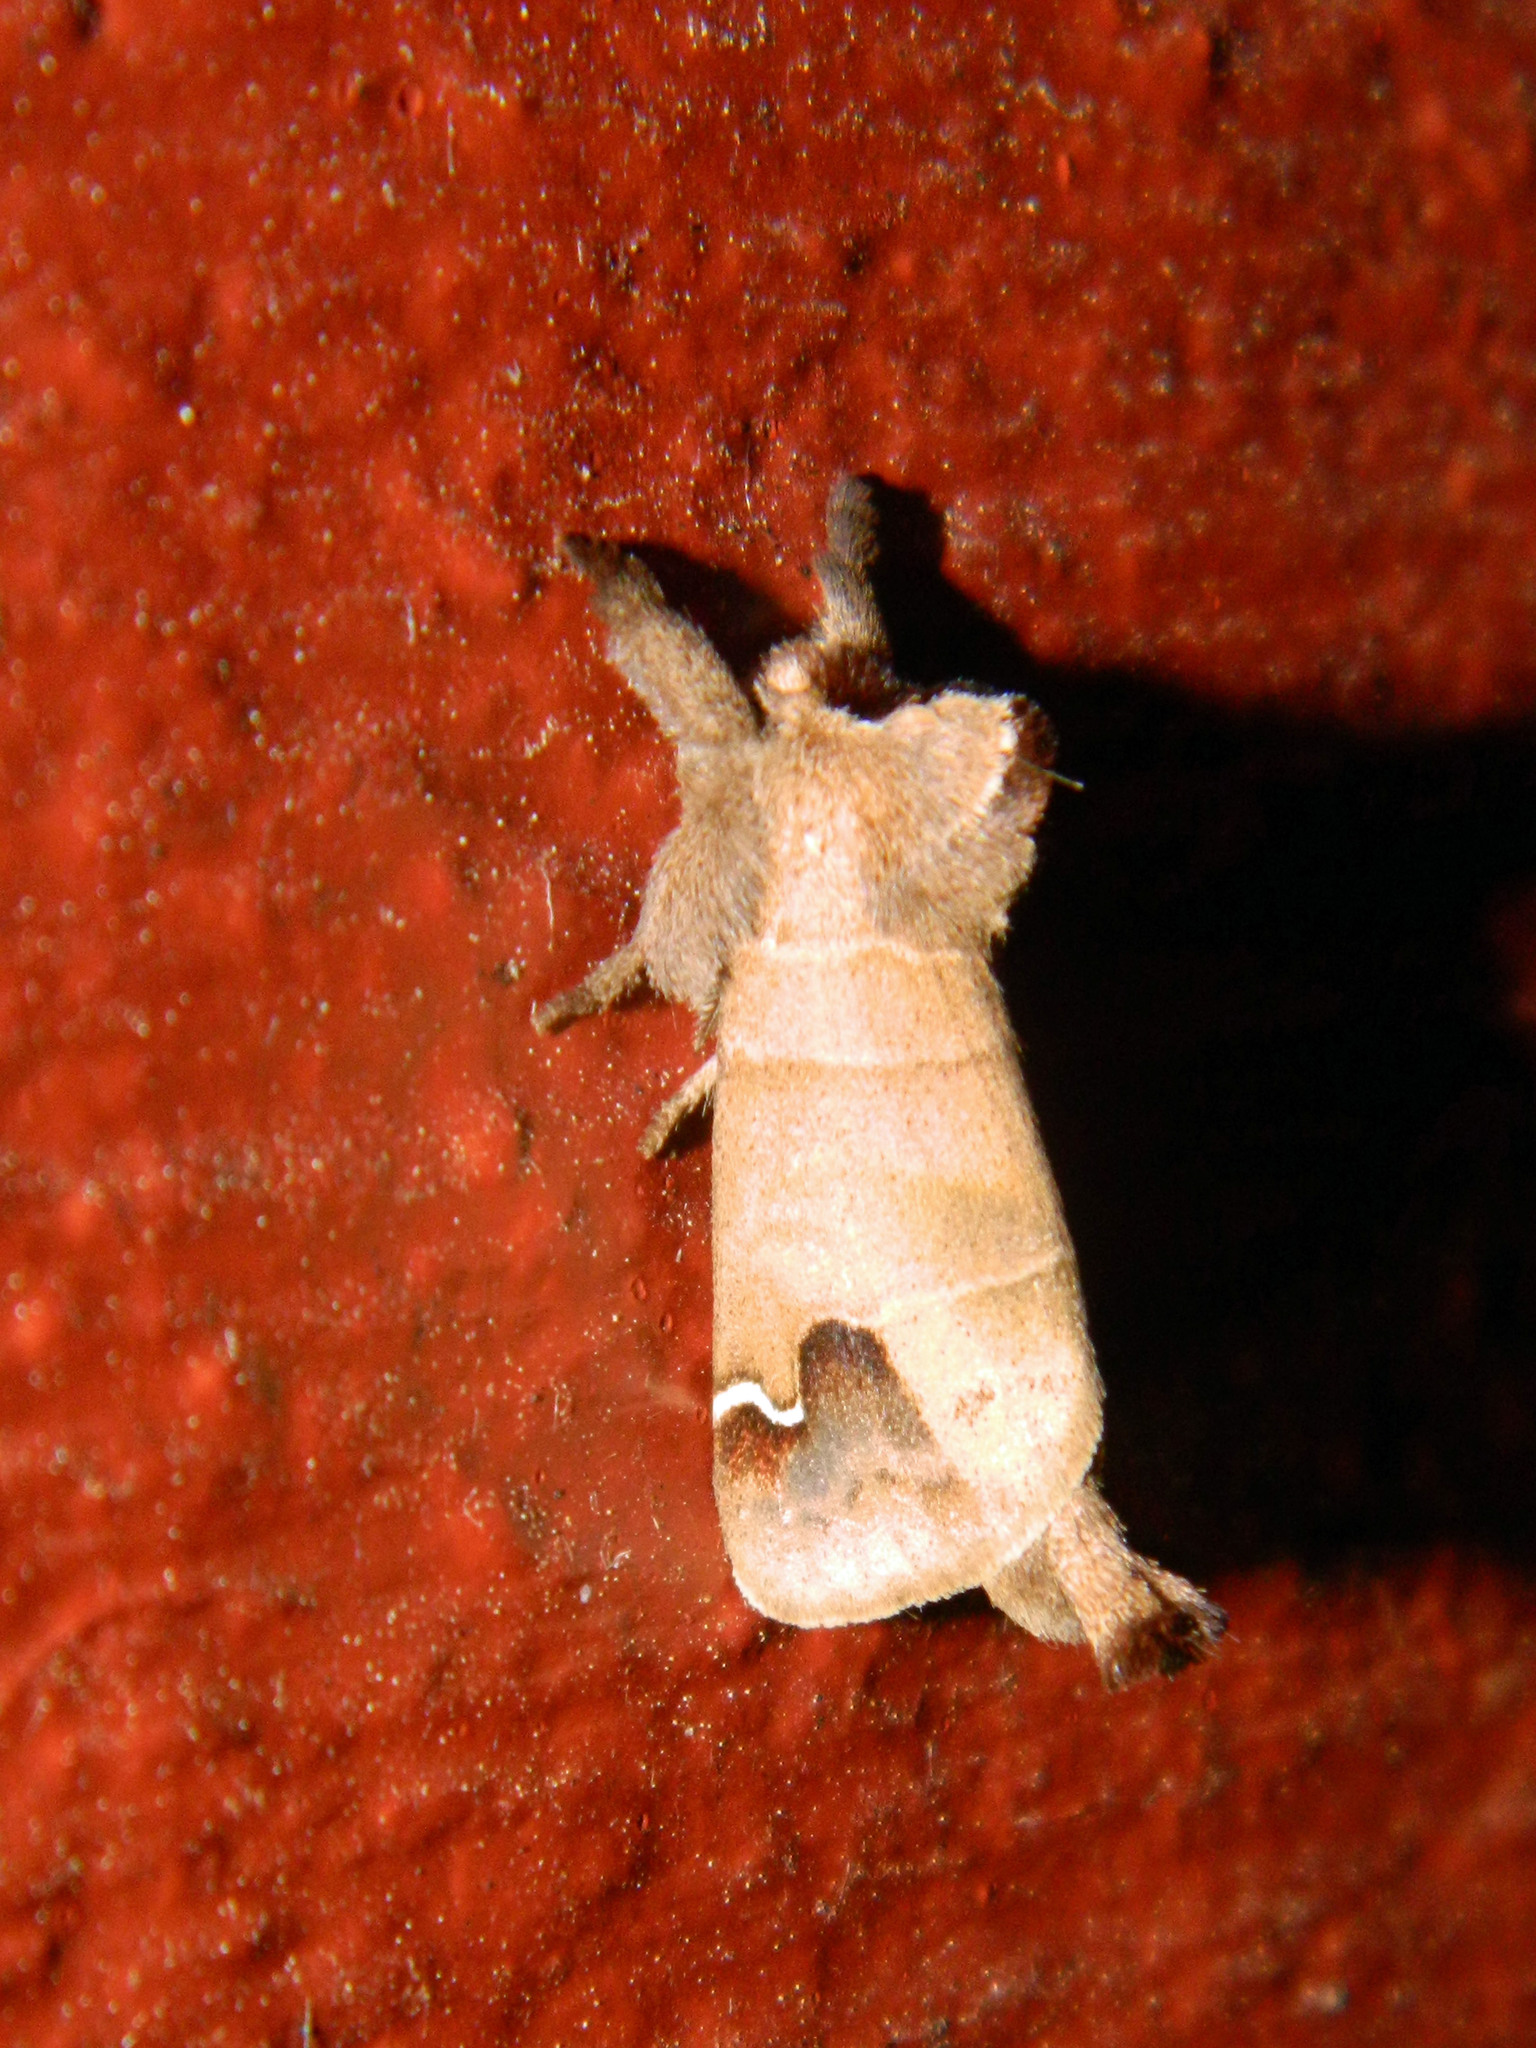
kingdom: Animalia
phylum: Arthropoda
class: Insecta
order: Lepidoptera
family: Notodontidae
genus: Clostera
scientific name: Clostera albosigma
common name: Sigmoid prominent
